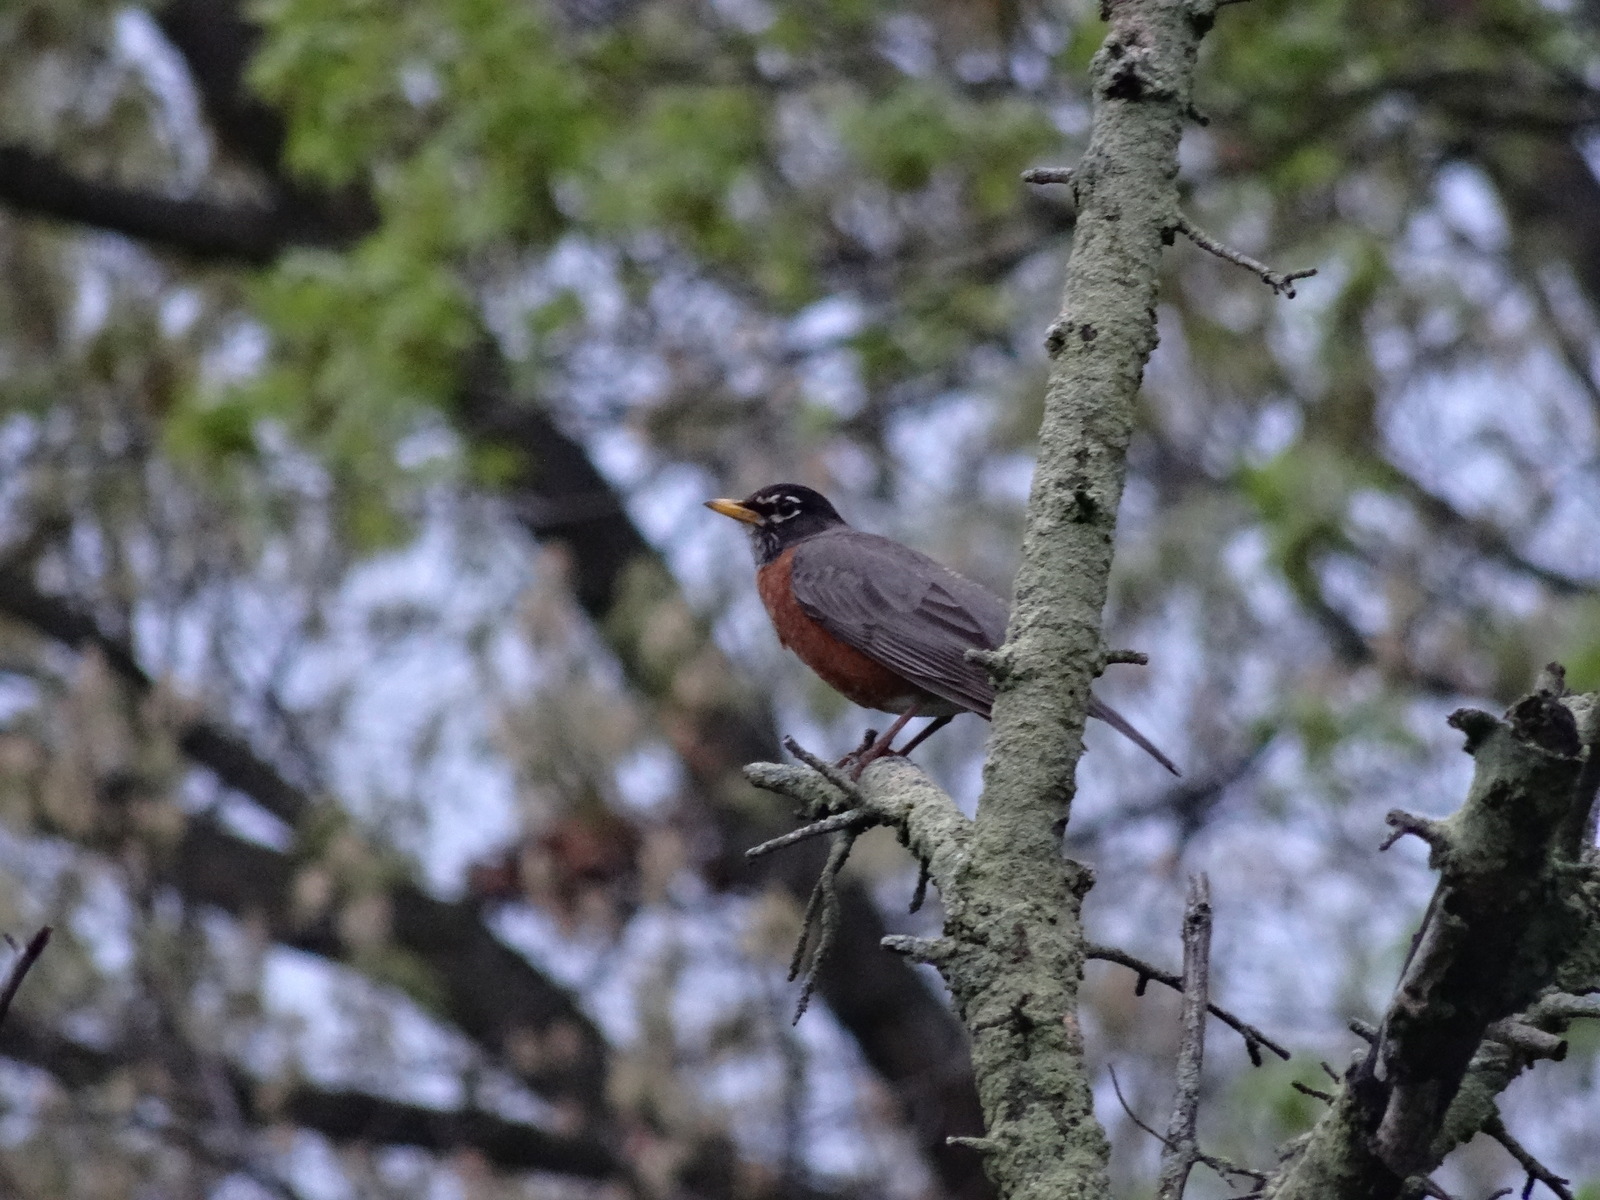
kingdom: Animalia
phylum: Chordata
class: Aves
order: Passeriformes
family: Turdidae
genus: Turdus
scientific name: Turdus migratorius
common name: American robin
